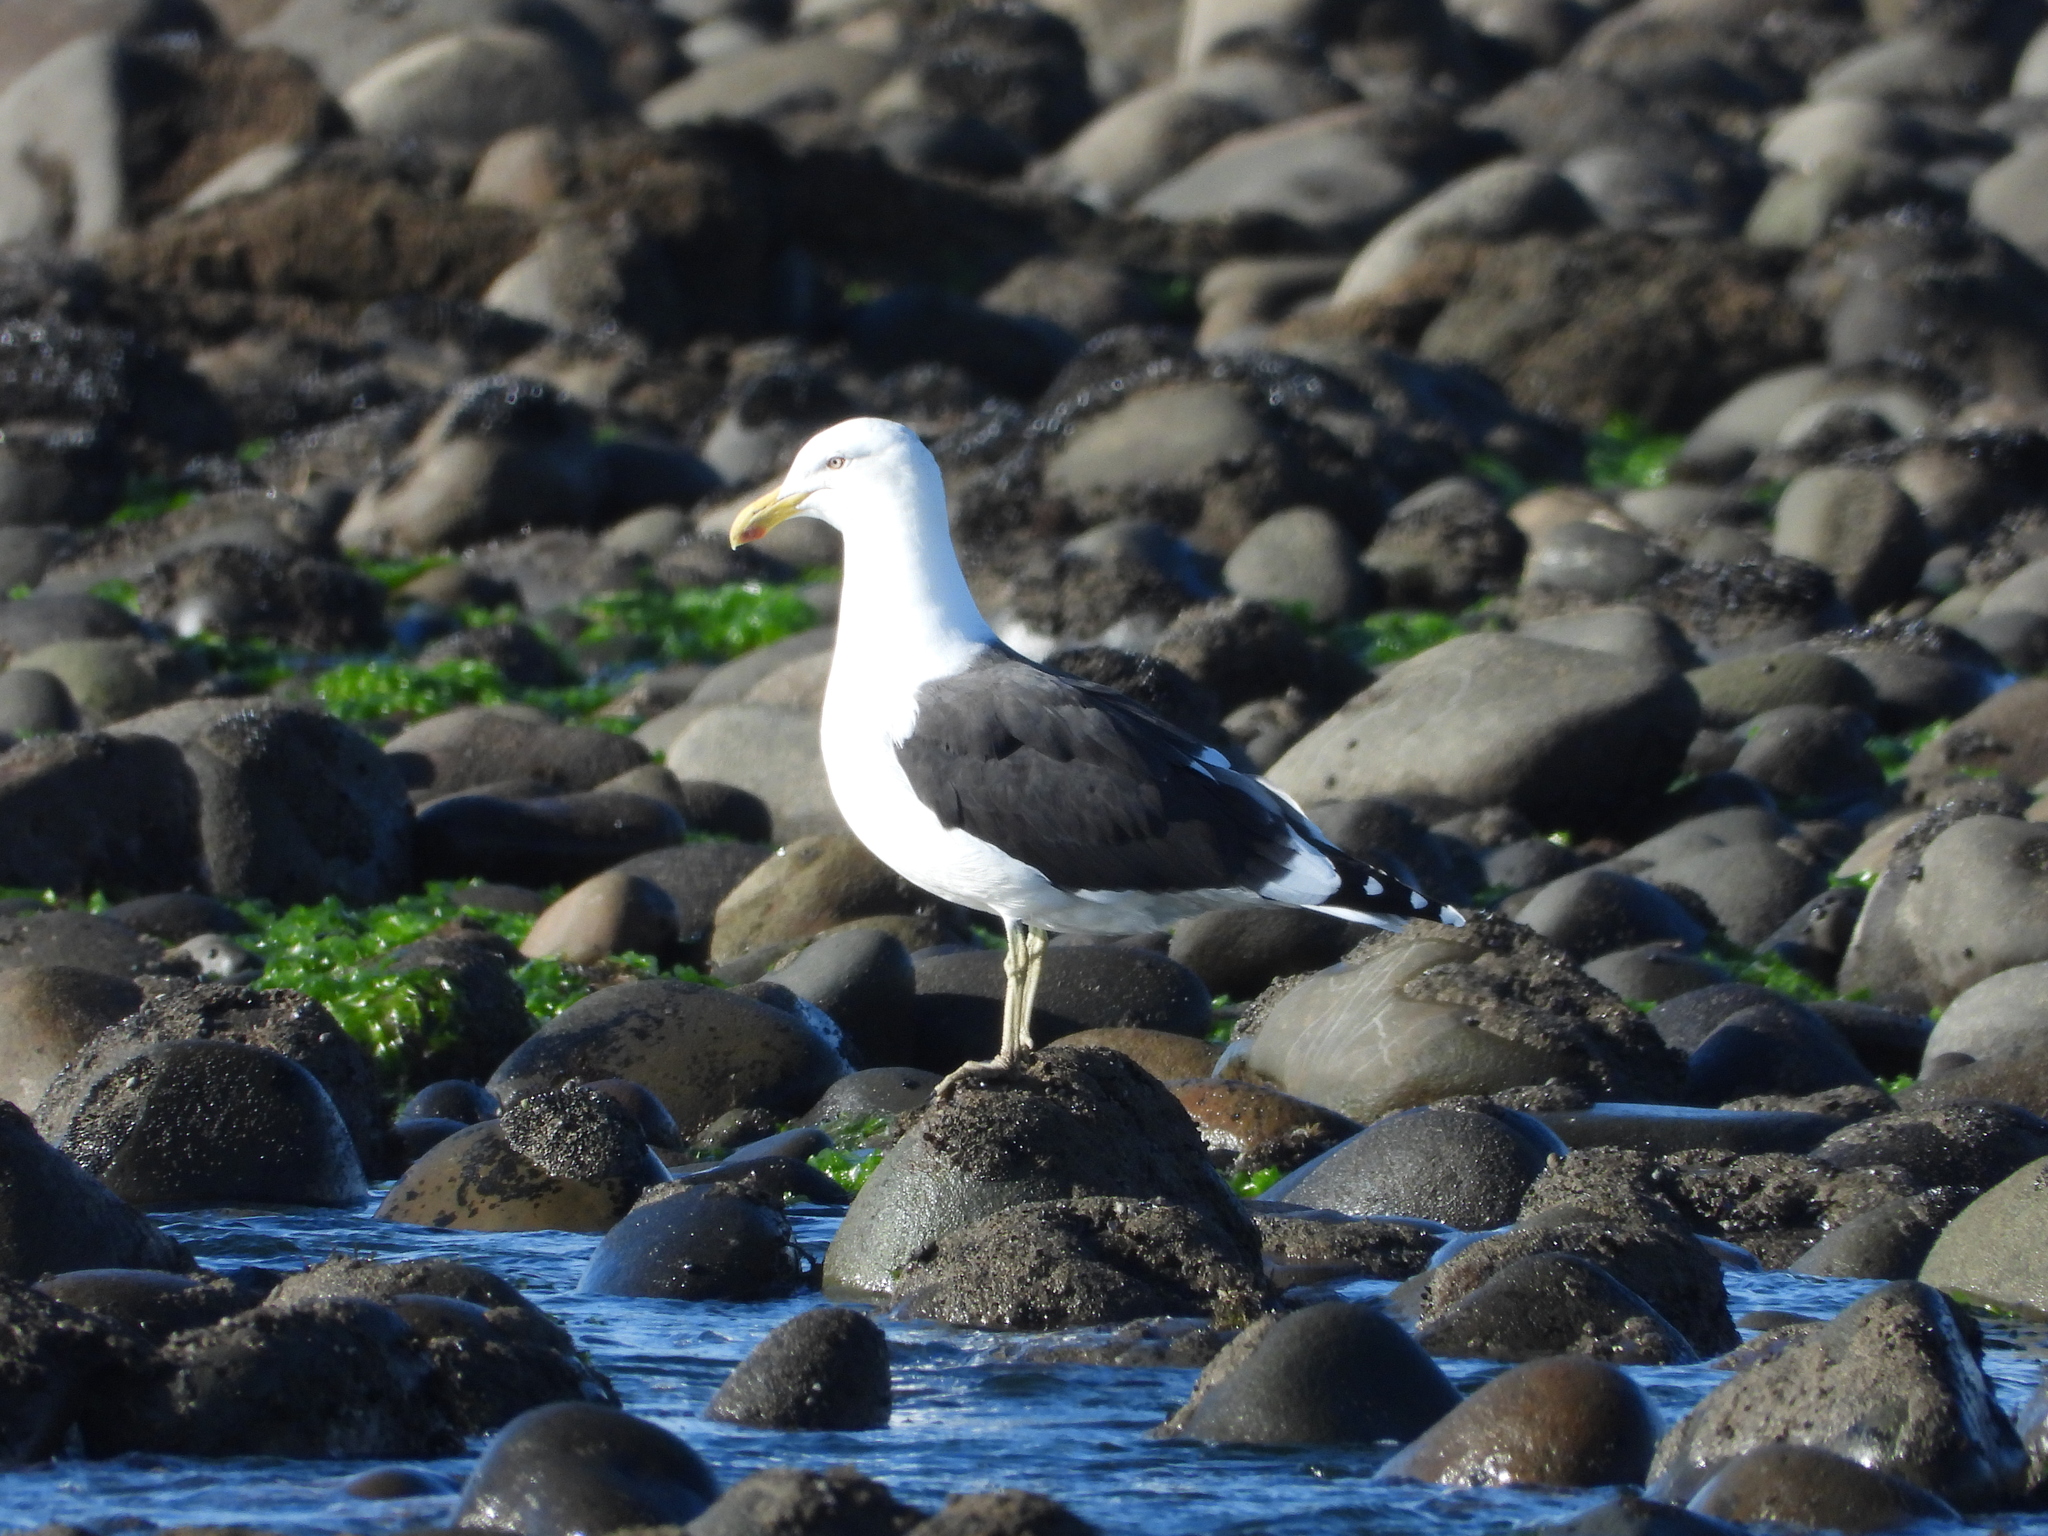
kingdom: Animalia
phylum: Chordata
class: Aves
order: Charadriiformes
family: Laridae
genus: Larus
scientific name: Larus dominicanus
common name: Kelp gull
